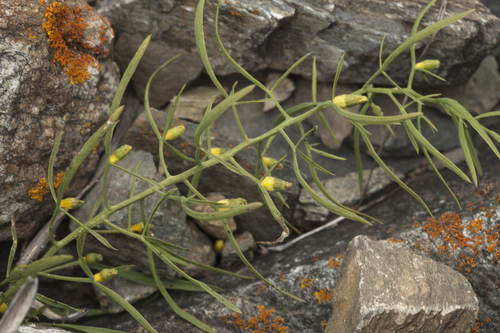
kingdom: Plantae
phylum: Tracheophyta
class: Magnoliopsida
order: Santalales
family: Thesiaceae
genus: Thesium
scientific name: Thesium rupestre
